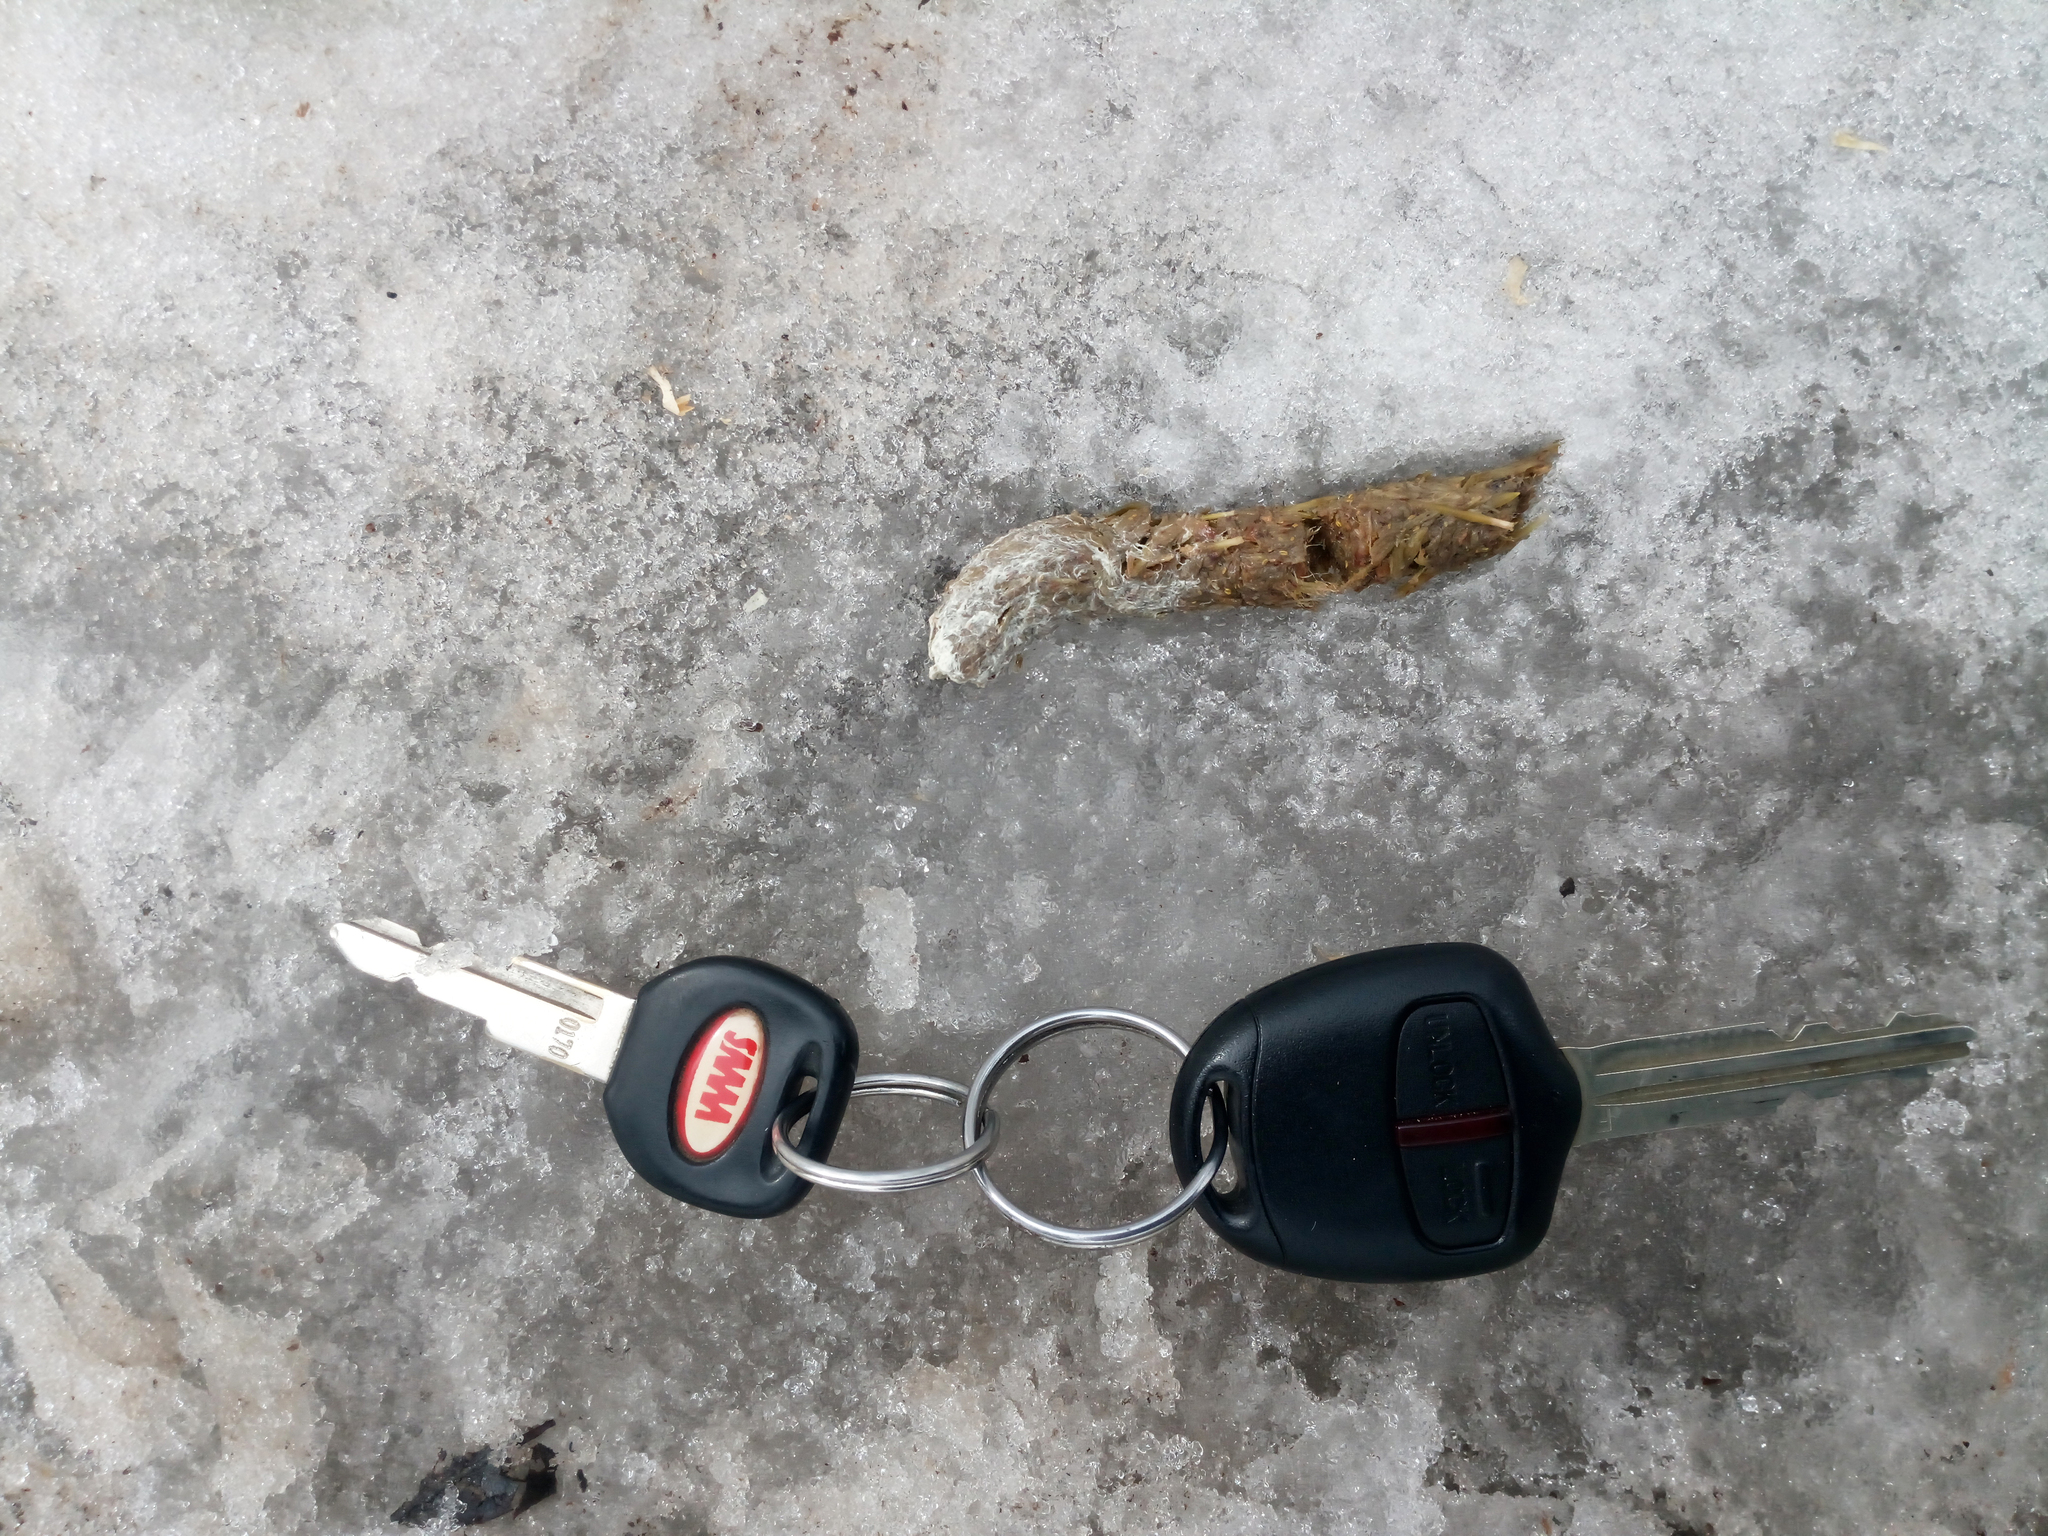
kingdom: Animalia
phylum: Chordata
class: Aves
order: Galliformes
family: Phasianidae
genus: Tetrao
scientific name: Tetrao urogallus
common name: Western capercaillie
